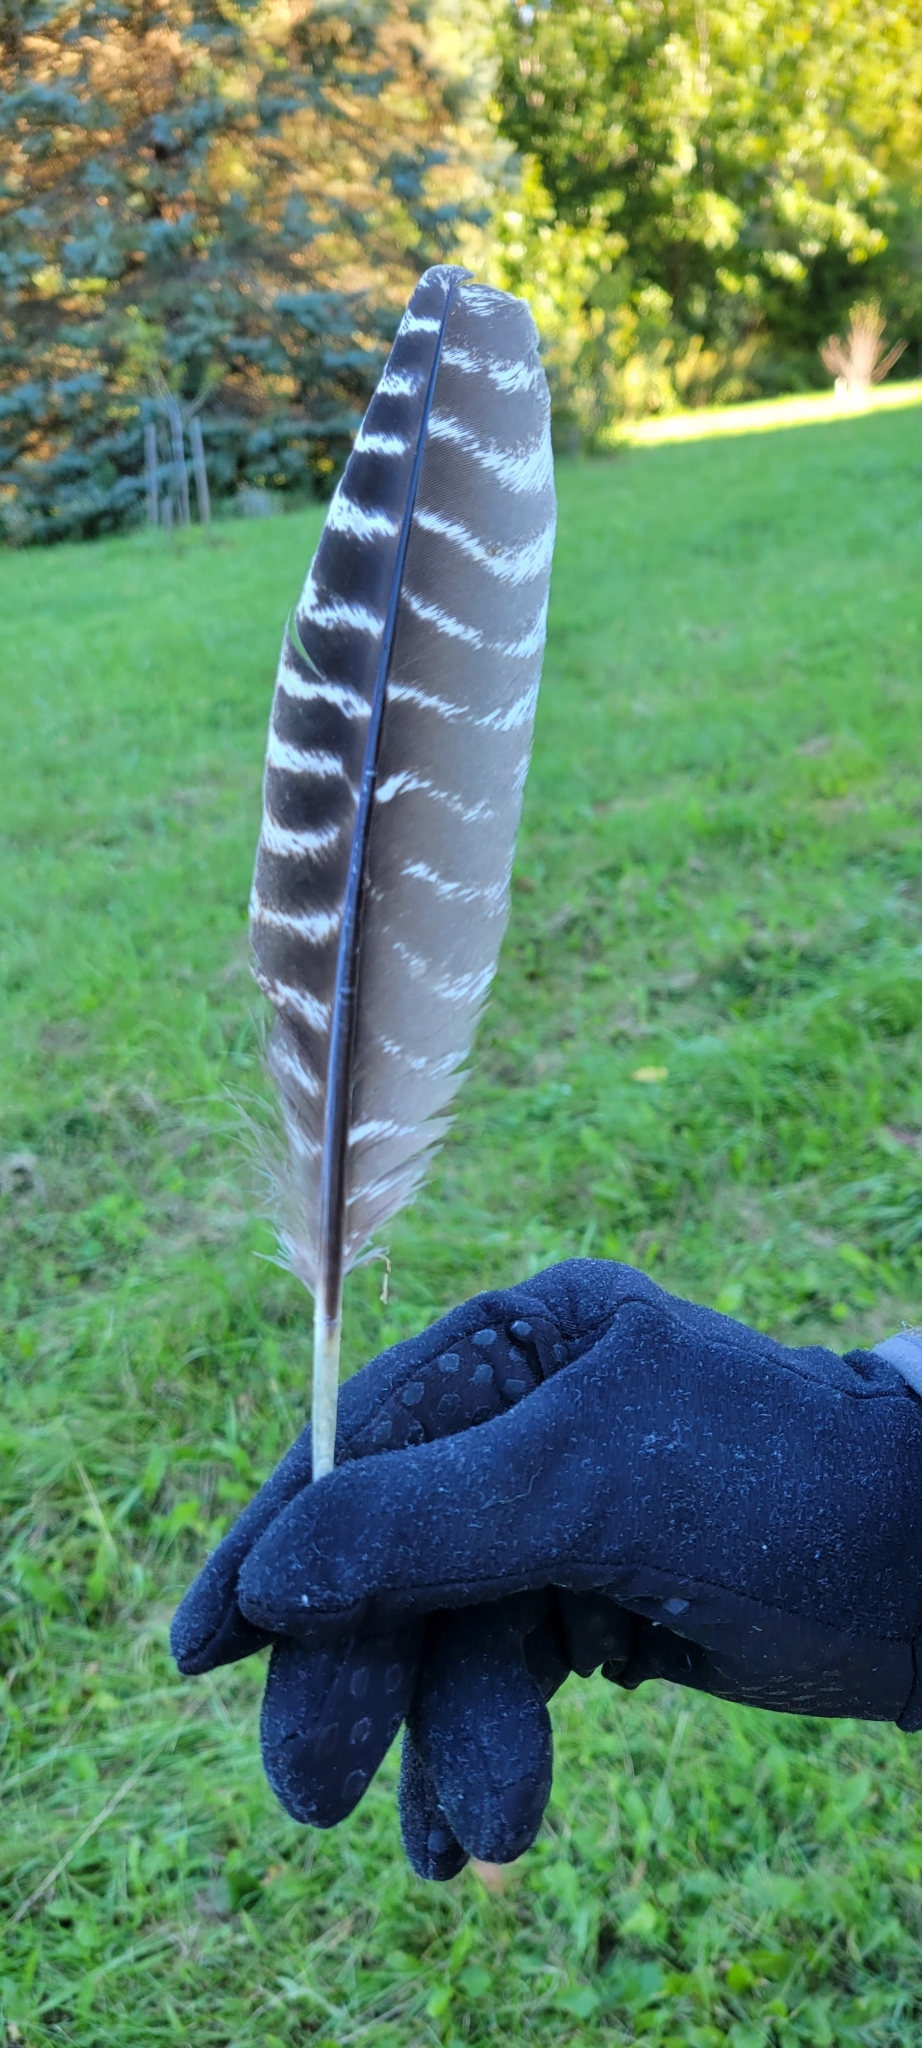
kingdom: Animalia
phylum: Chordata
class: Aves
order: Galliformes
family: Phasianidae
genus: Meleagris
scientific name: Meleagris gallopavo
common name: Wild turkey
